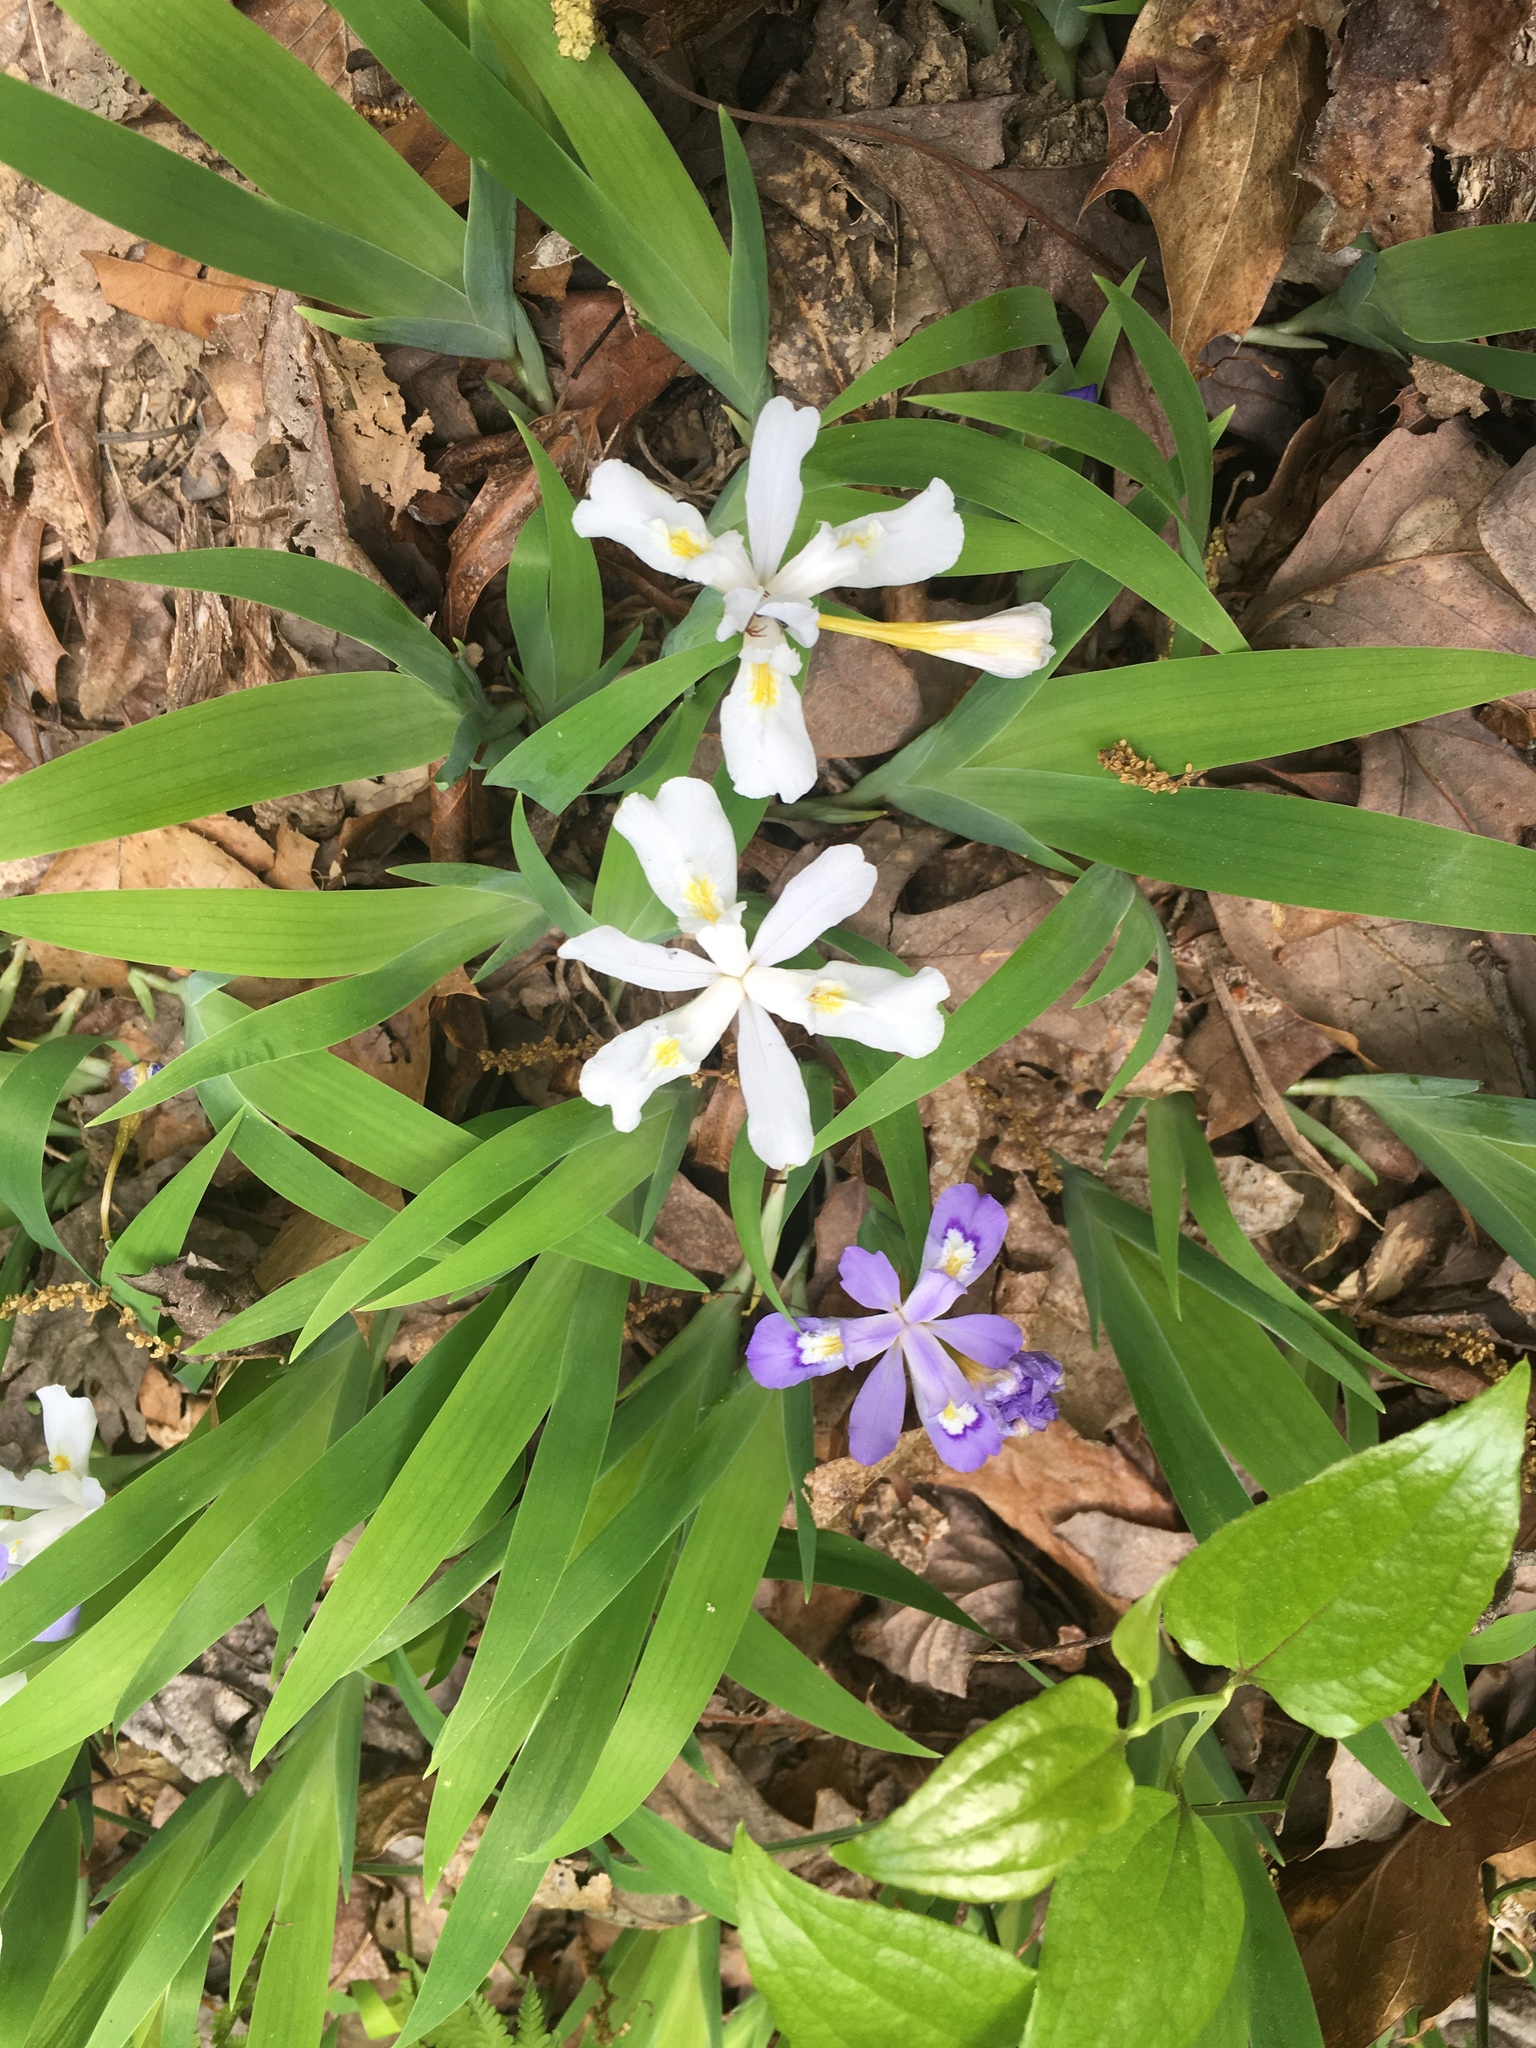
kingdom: Plantae
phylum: Tracheophyta
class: Liliopsida
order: Asparagales
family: Iridaceae
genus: Iris
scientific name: Iris cristata
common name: Crested iris
